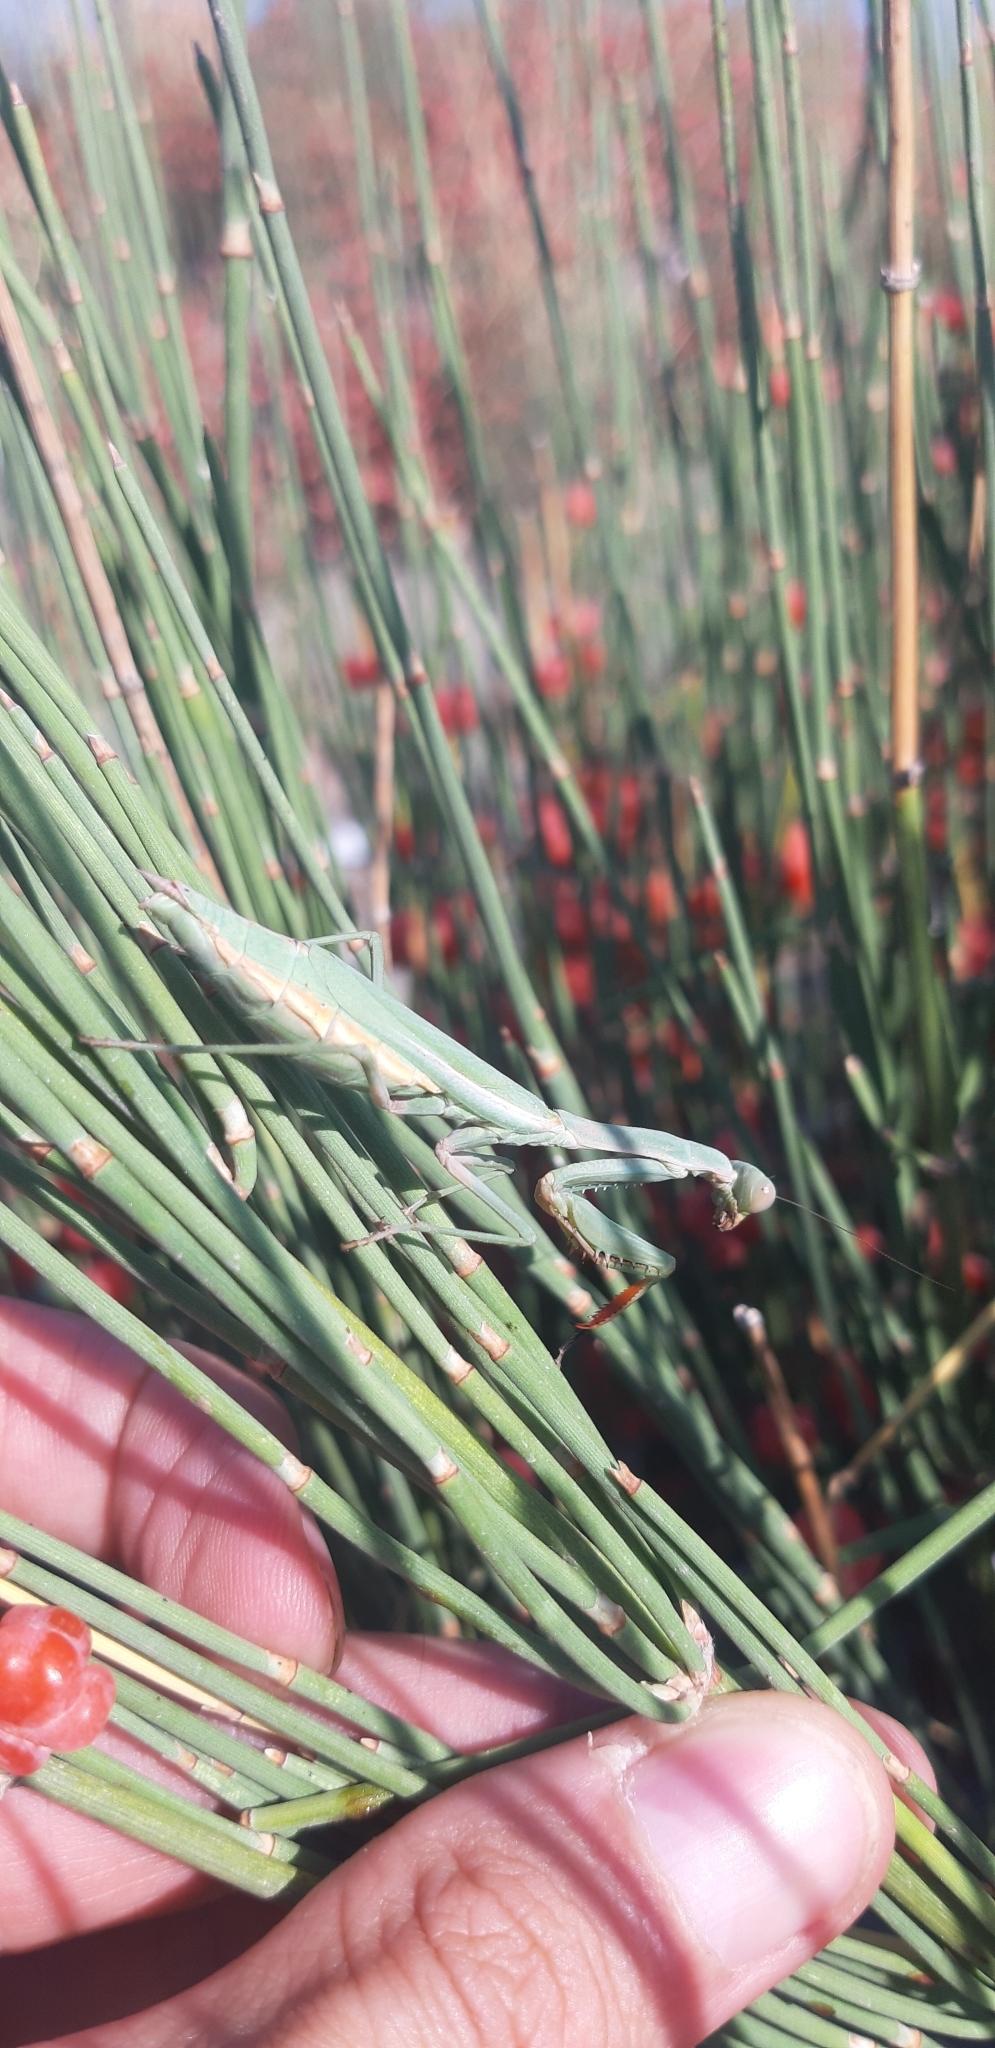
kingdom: Animalia
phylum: Arthropoda
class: Insecta
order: Mantodea
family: Eremiaphilidae
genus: Iris
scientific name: Iris oratoria
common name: Mediterranean mantis
